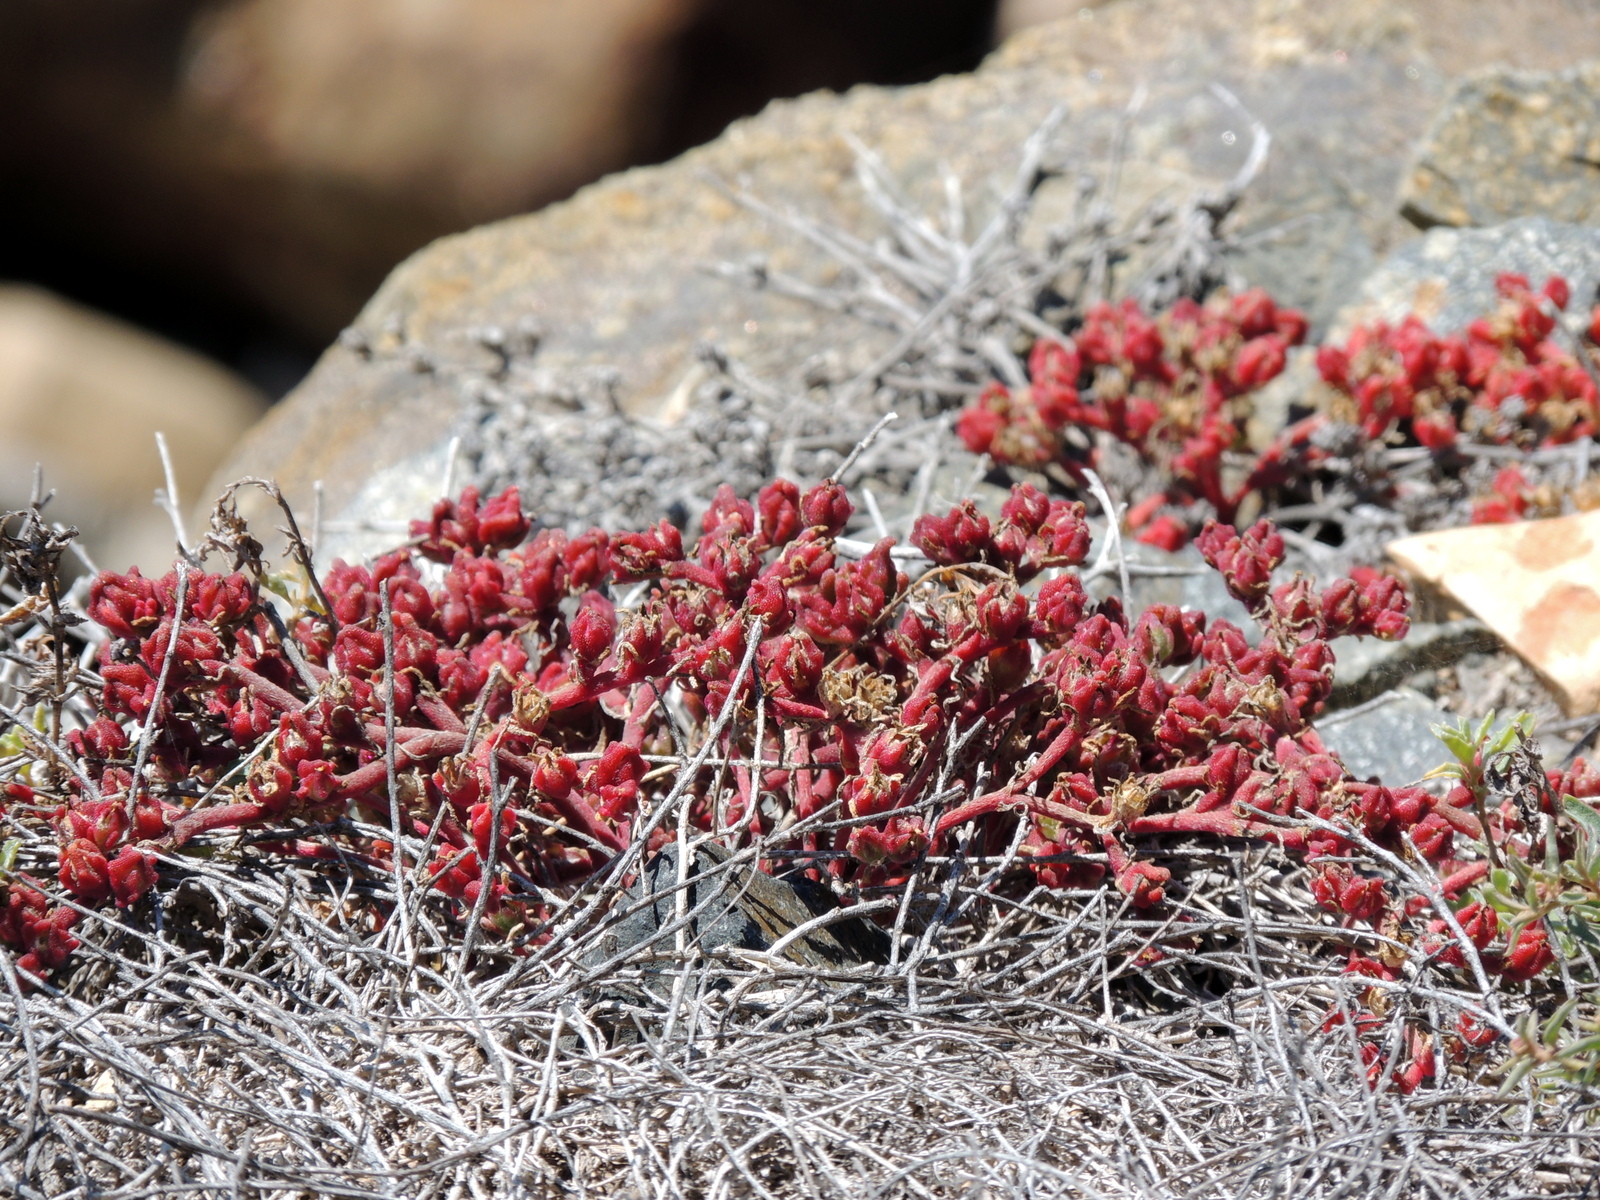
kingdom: Plantae
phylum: Tracheophyta
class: Magnoliopsida
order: Caryophyllales
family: Aizoaceae
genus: Mesembryanthemum
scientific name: Mesembryanthemum nodiflorum
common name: Slenderleaf iceplant
